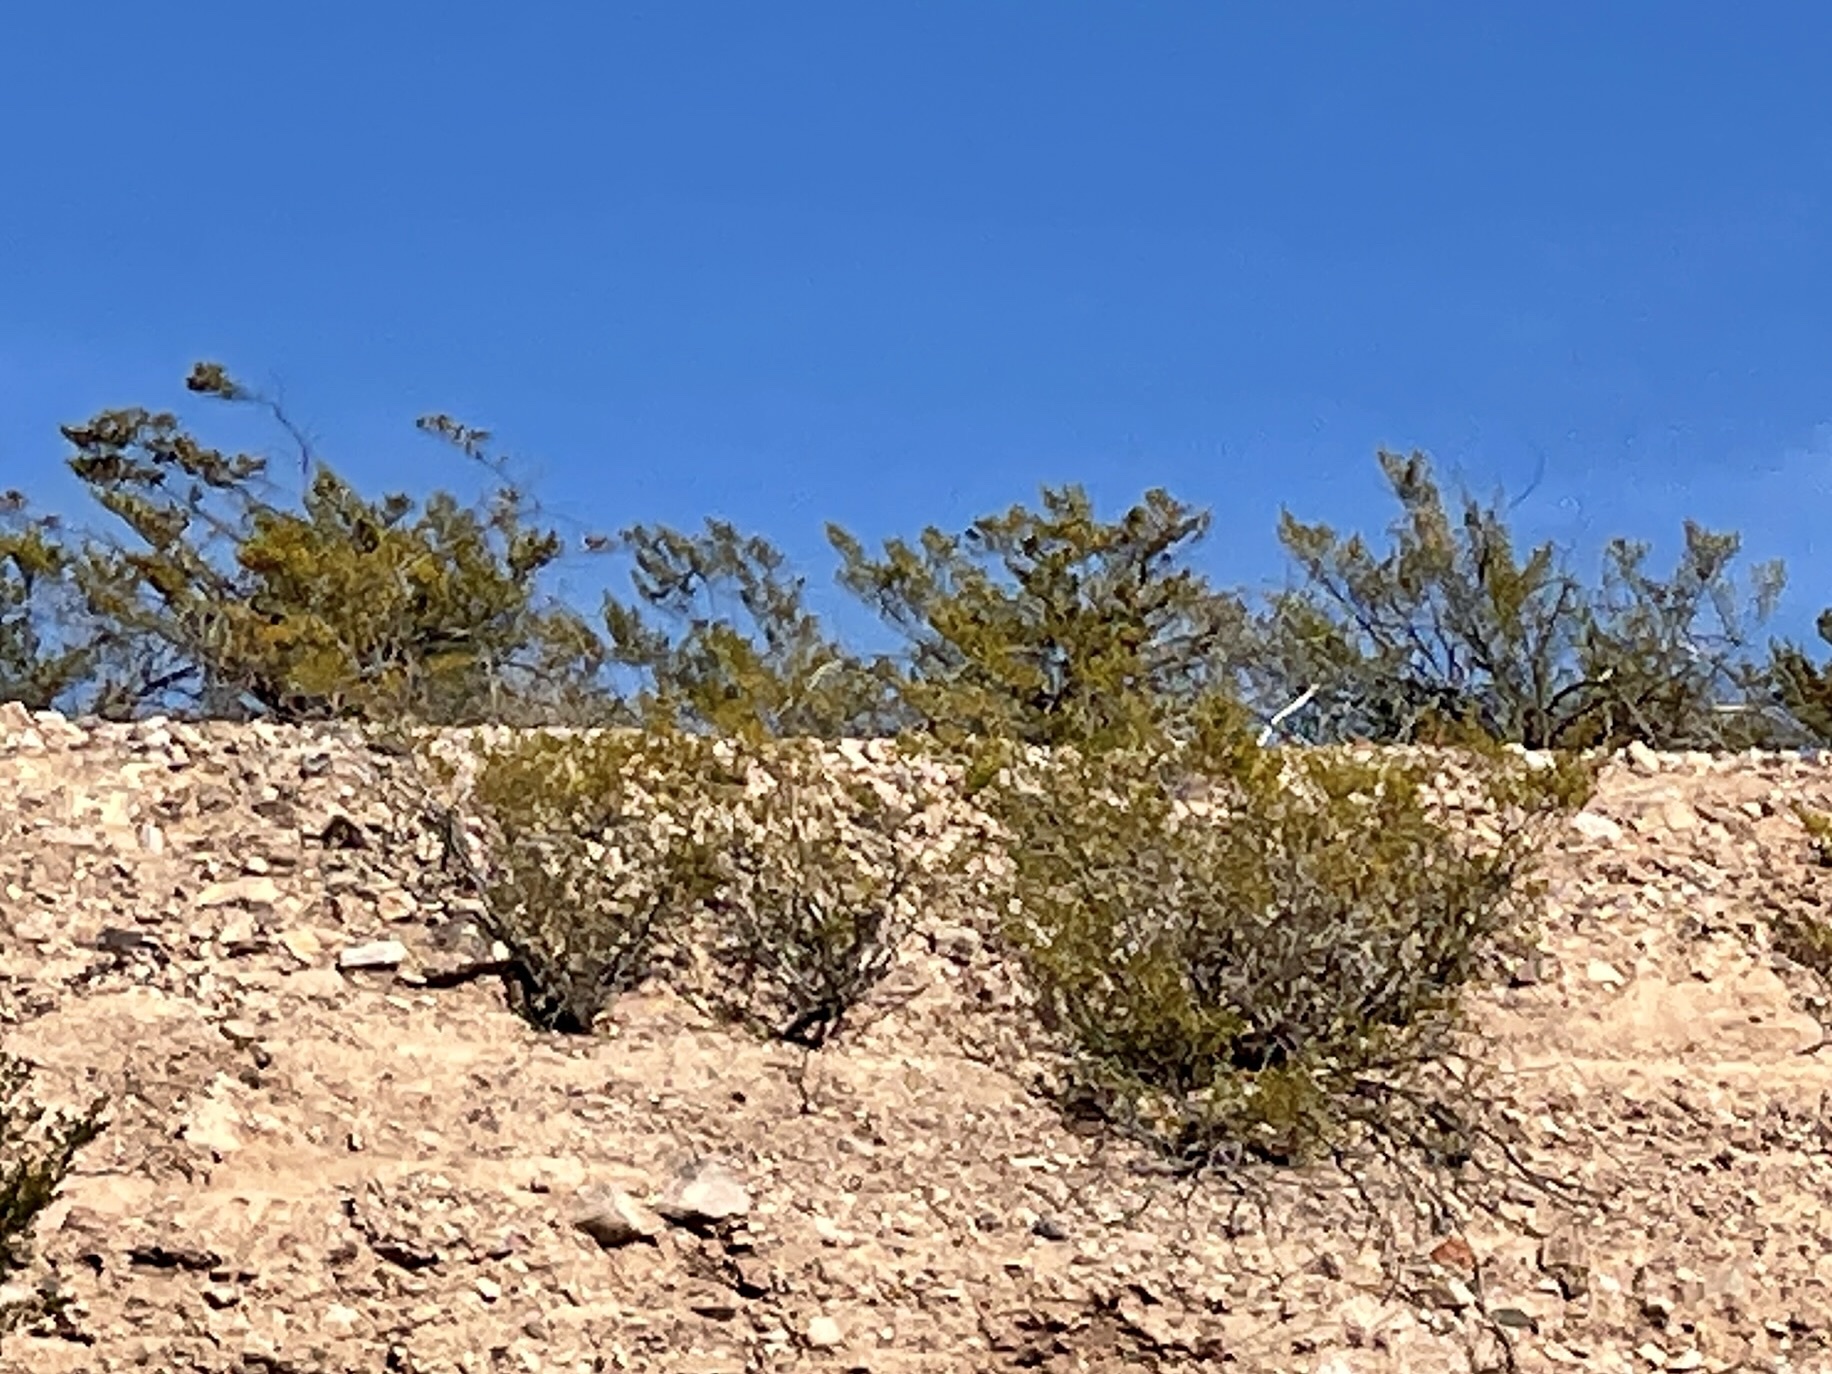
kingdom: Plantae
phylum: Tracheophyta
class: Magnoliopsida
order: Zygophyllales
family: Zygophyllaceae
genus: Larrea
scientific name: Larrea tridentata
